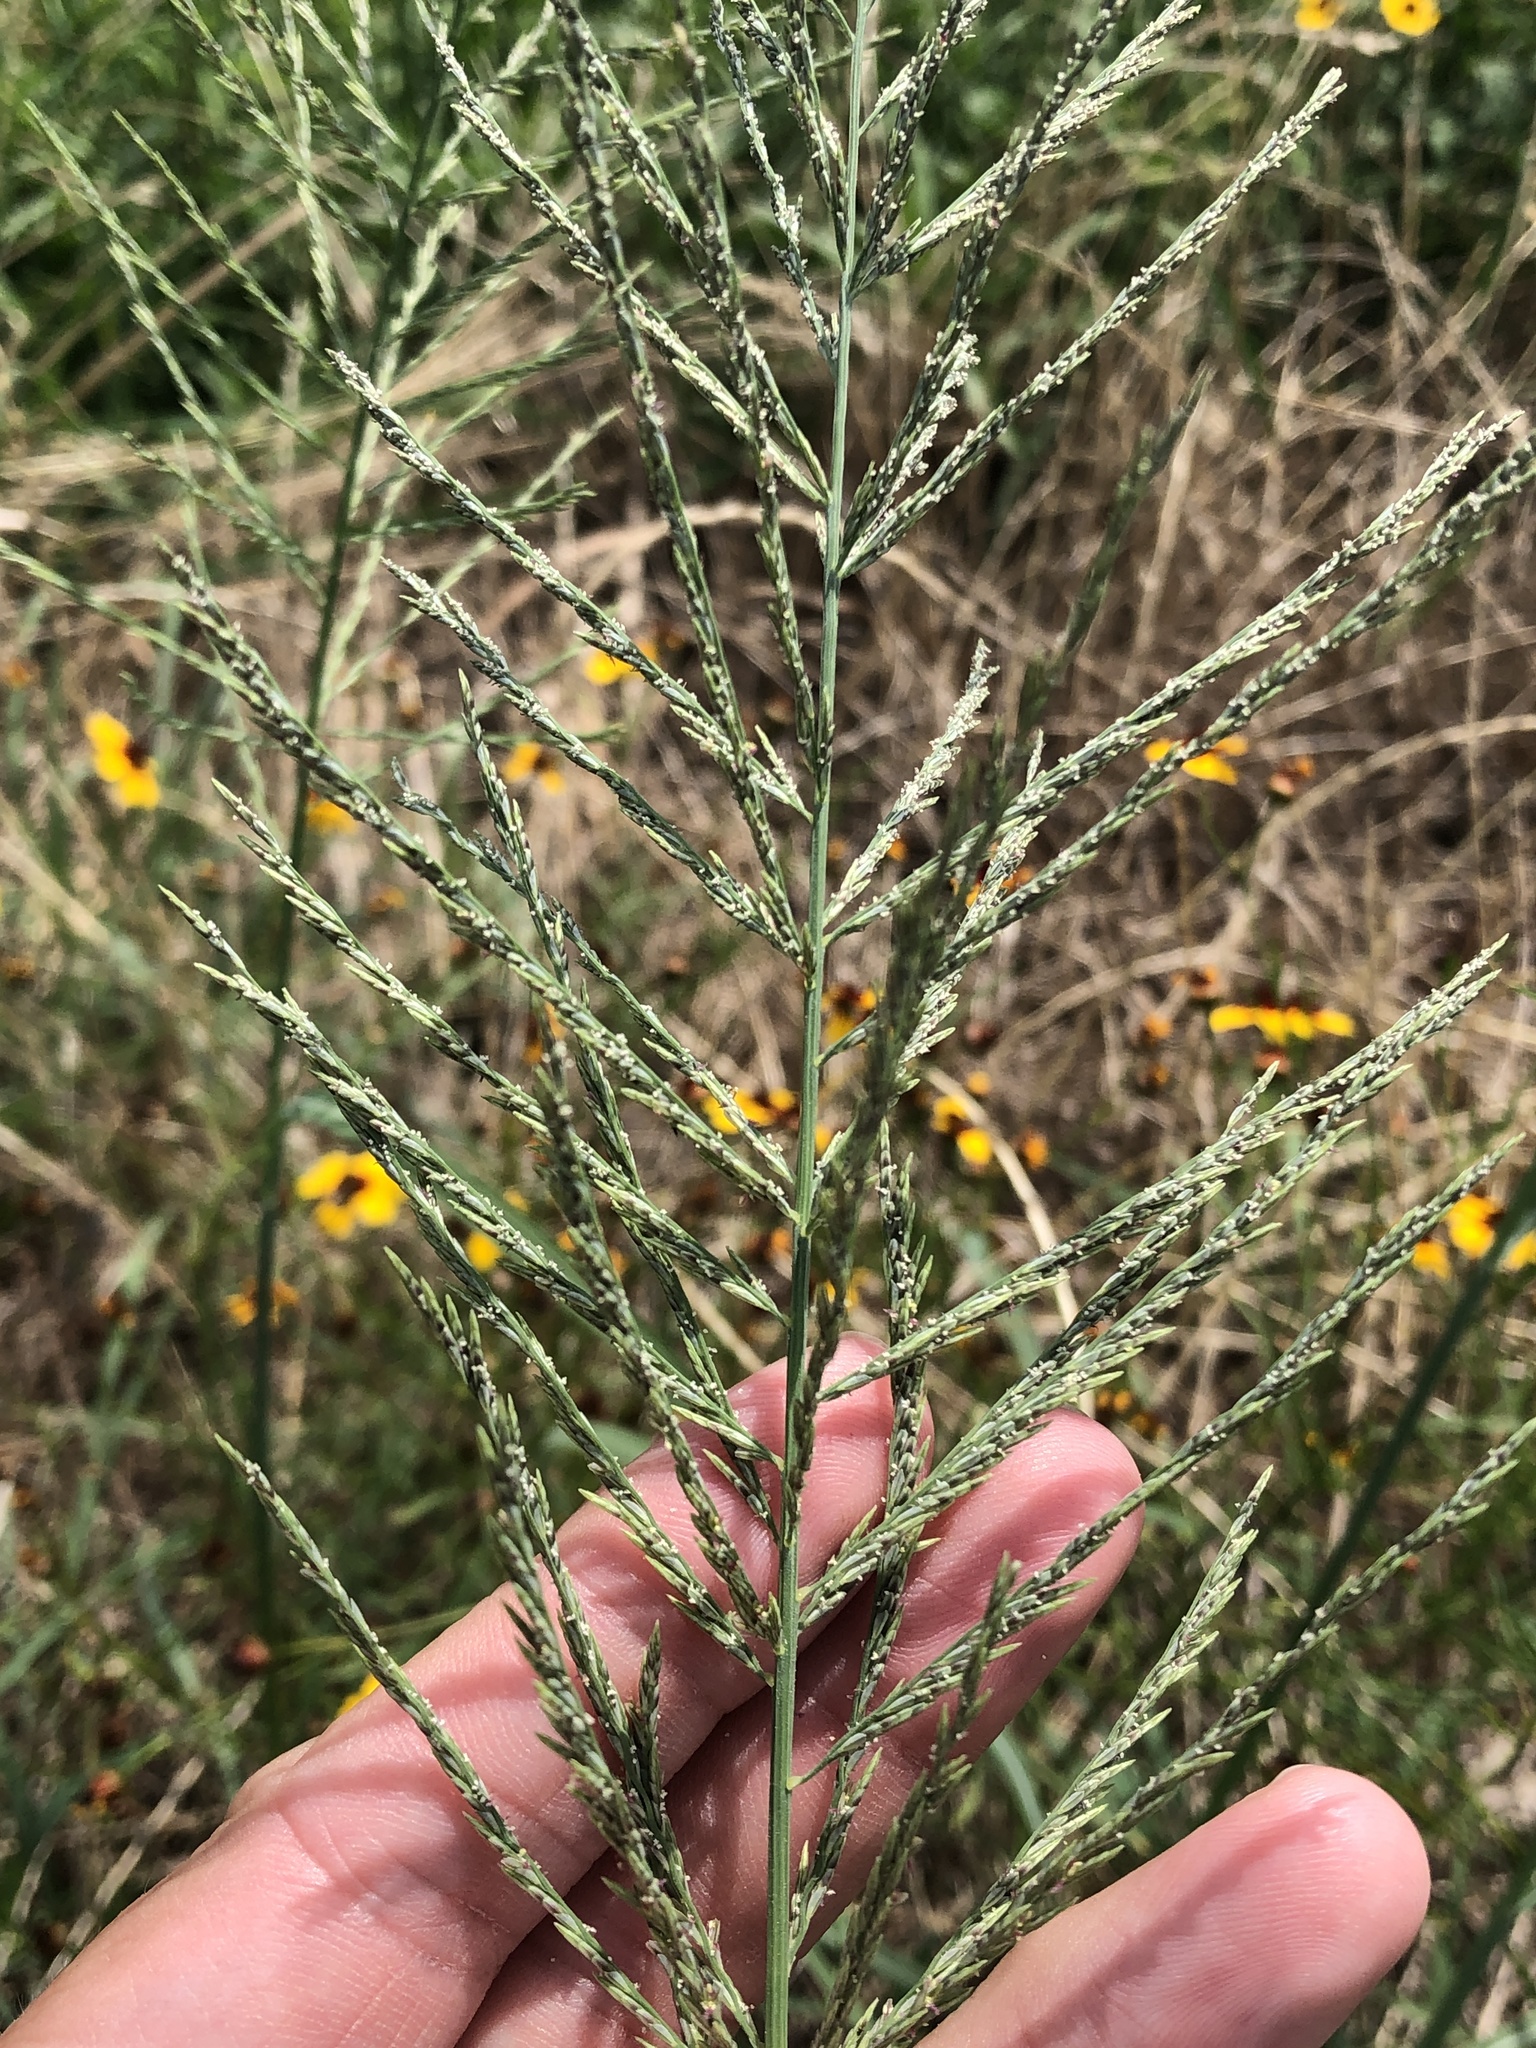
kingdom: Plantae
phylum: Tracheophyta
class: Liliopsida
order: Poales
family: Poaceae
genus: Diplachne
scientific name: Diplachne fusca
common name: Brown beetle grass
